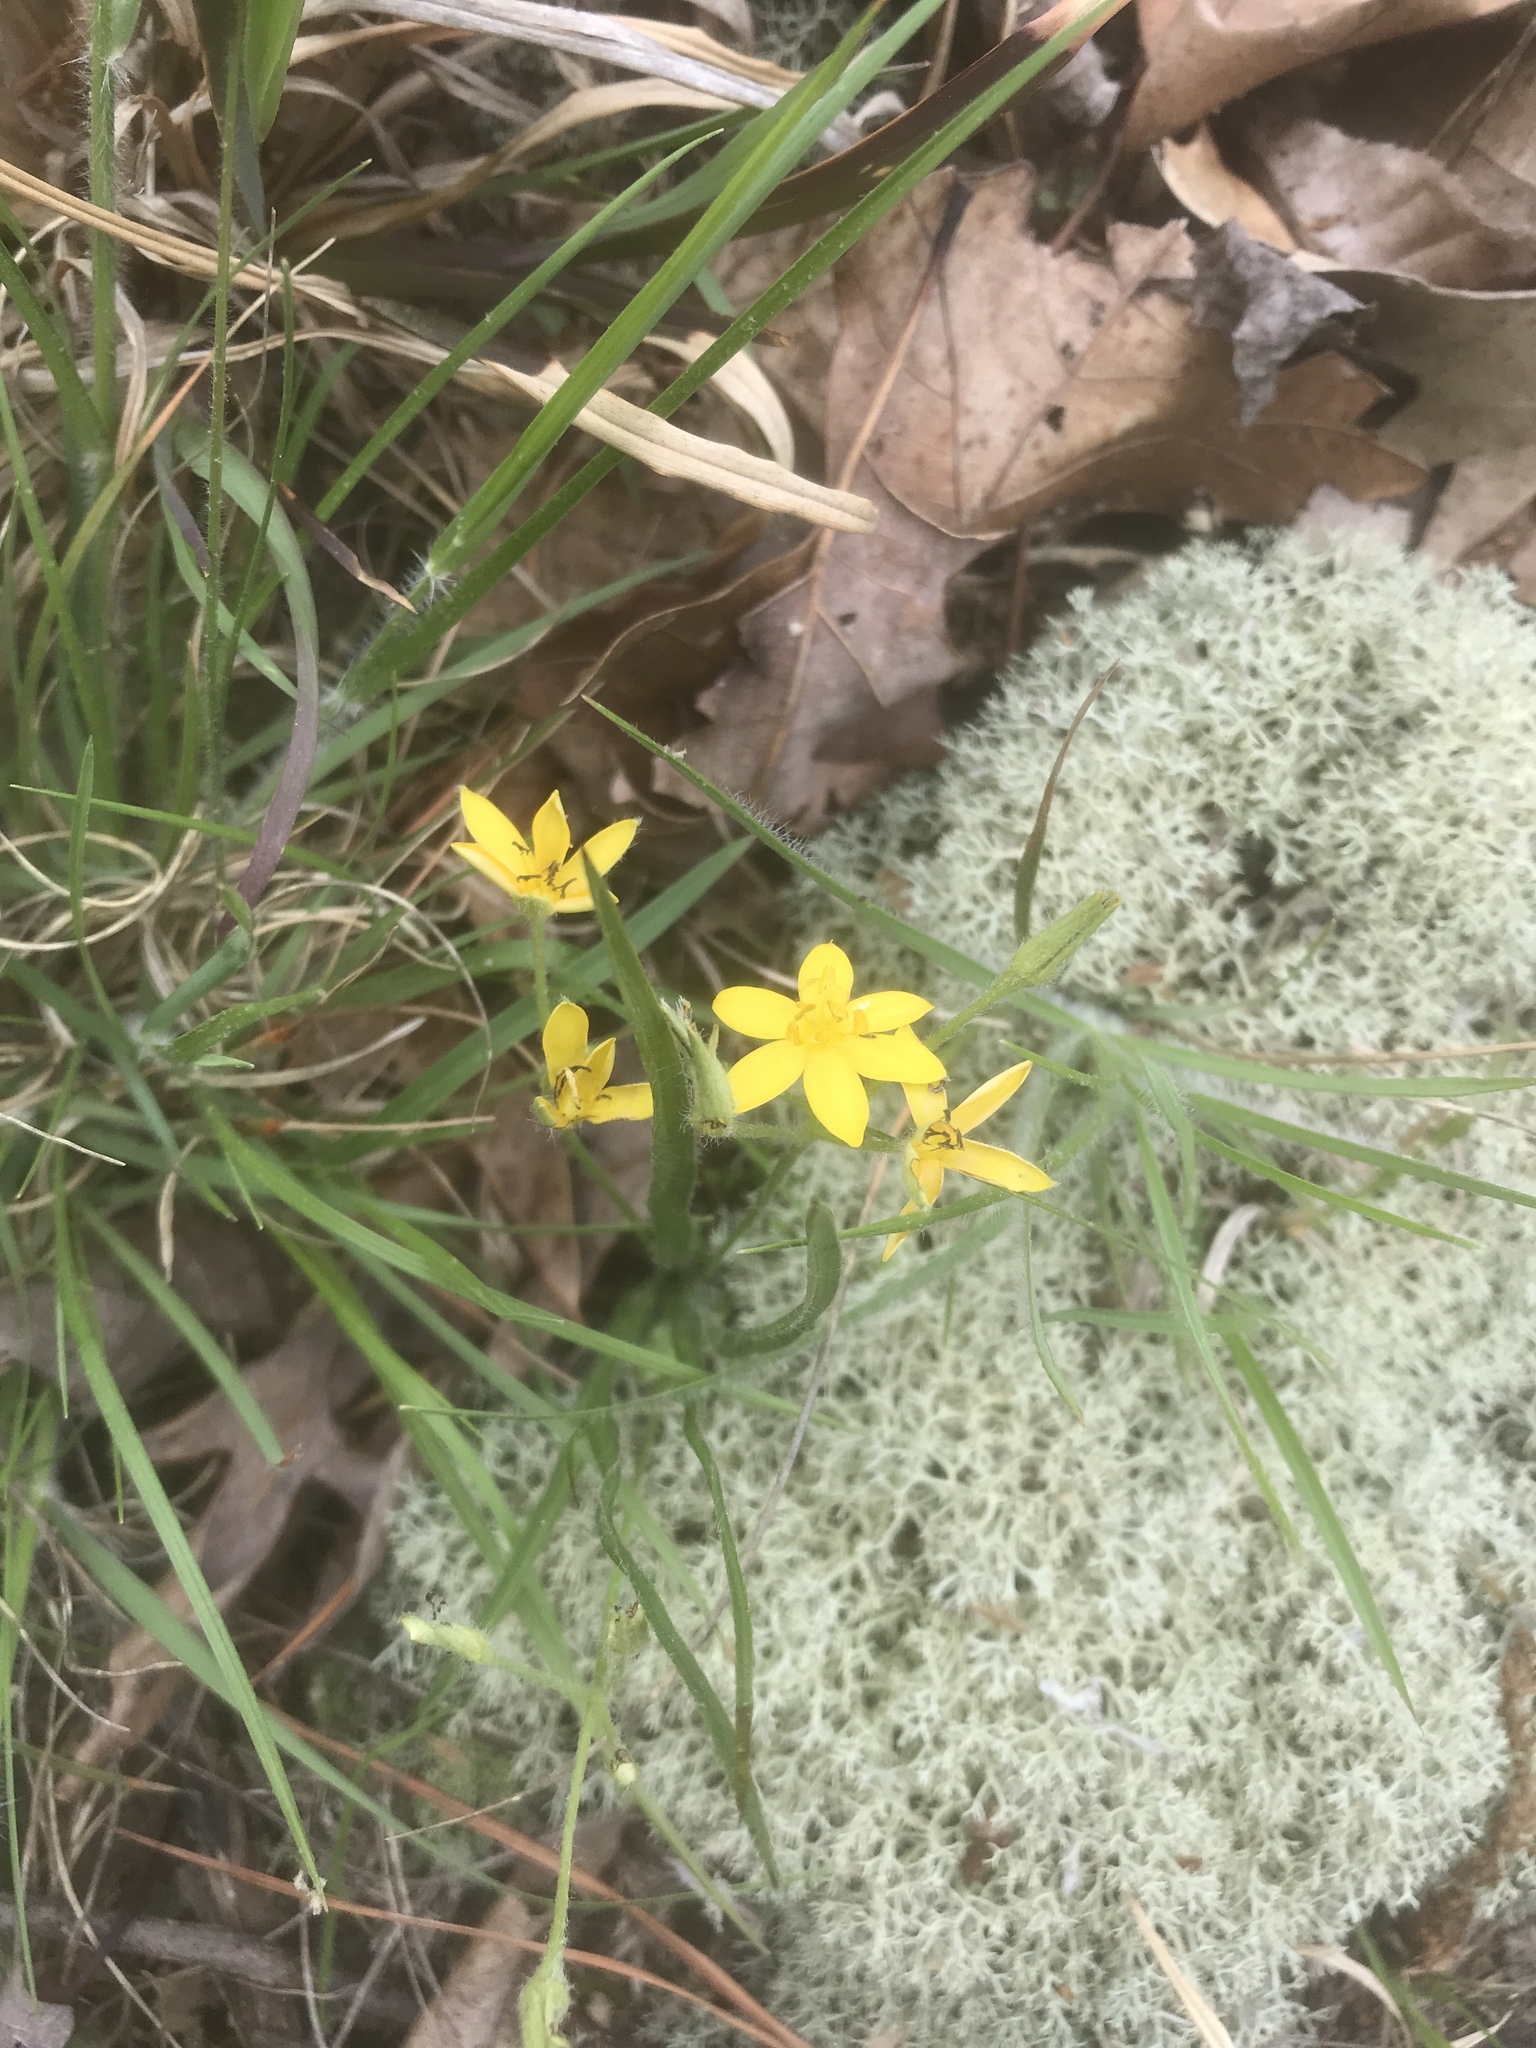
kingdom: Plantae
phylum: Tracheophyta
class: Liliopsida
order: Asparagales
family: Hypoxidaceae
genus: Hypoxis
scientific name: Hypoxis hirsuta
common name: Common goldstar
